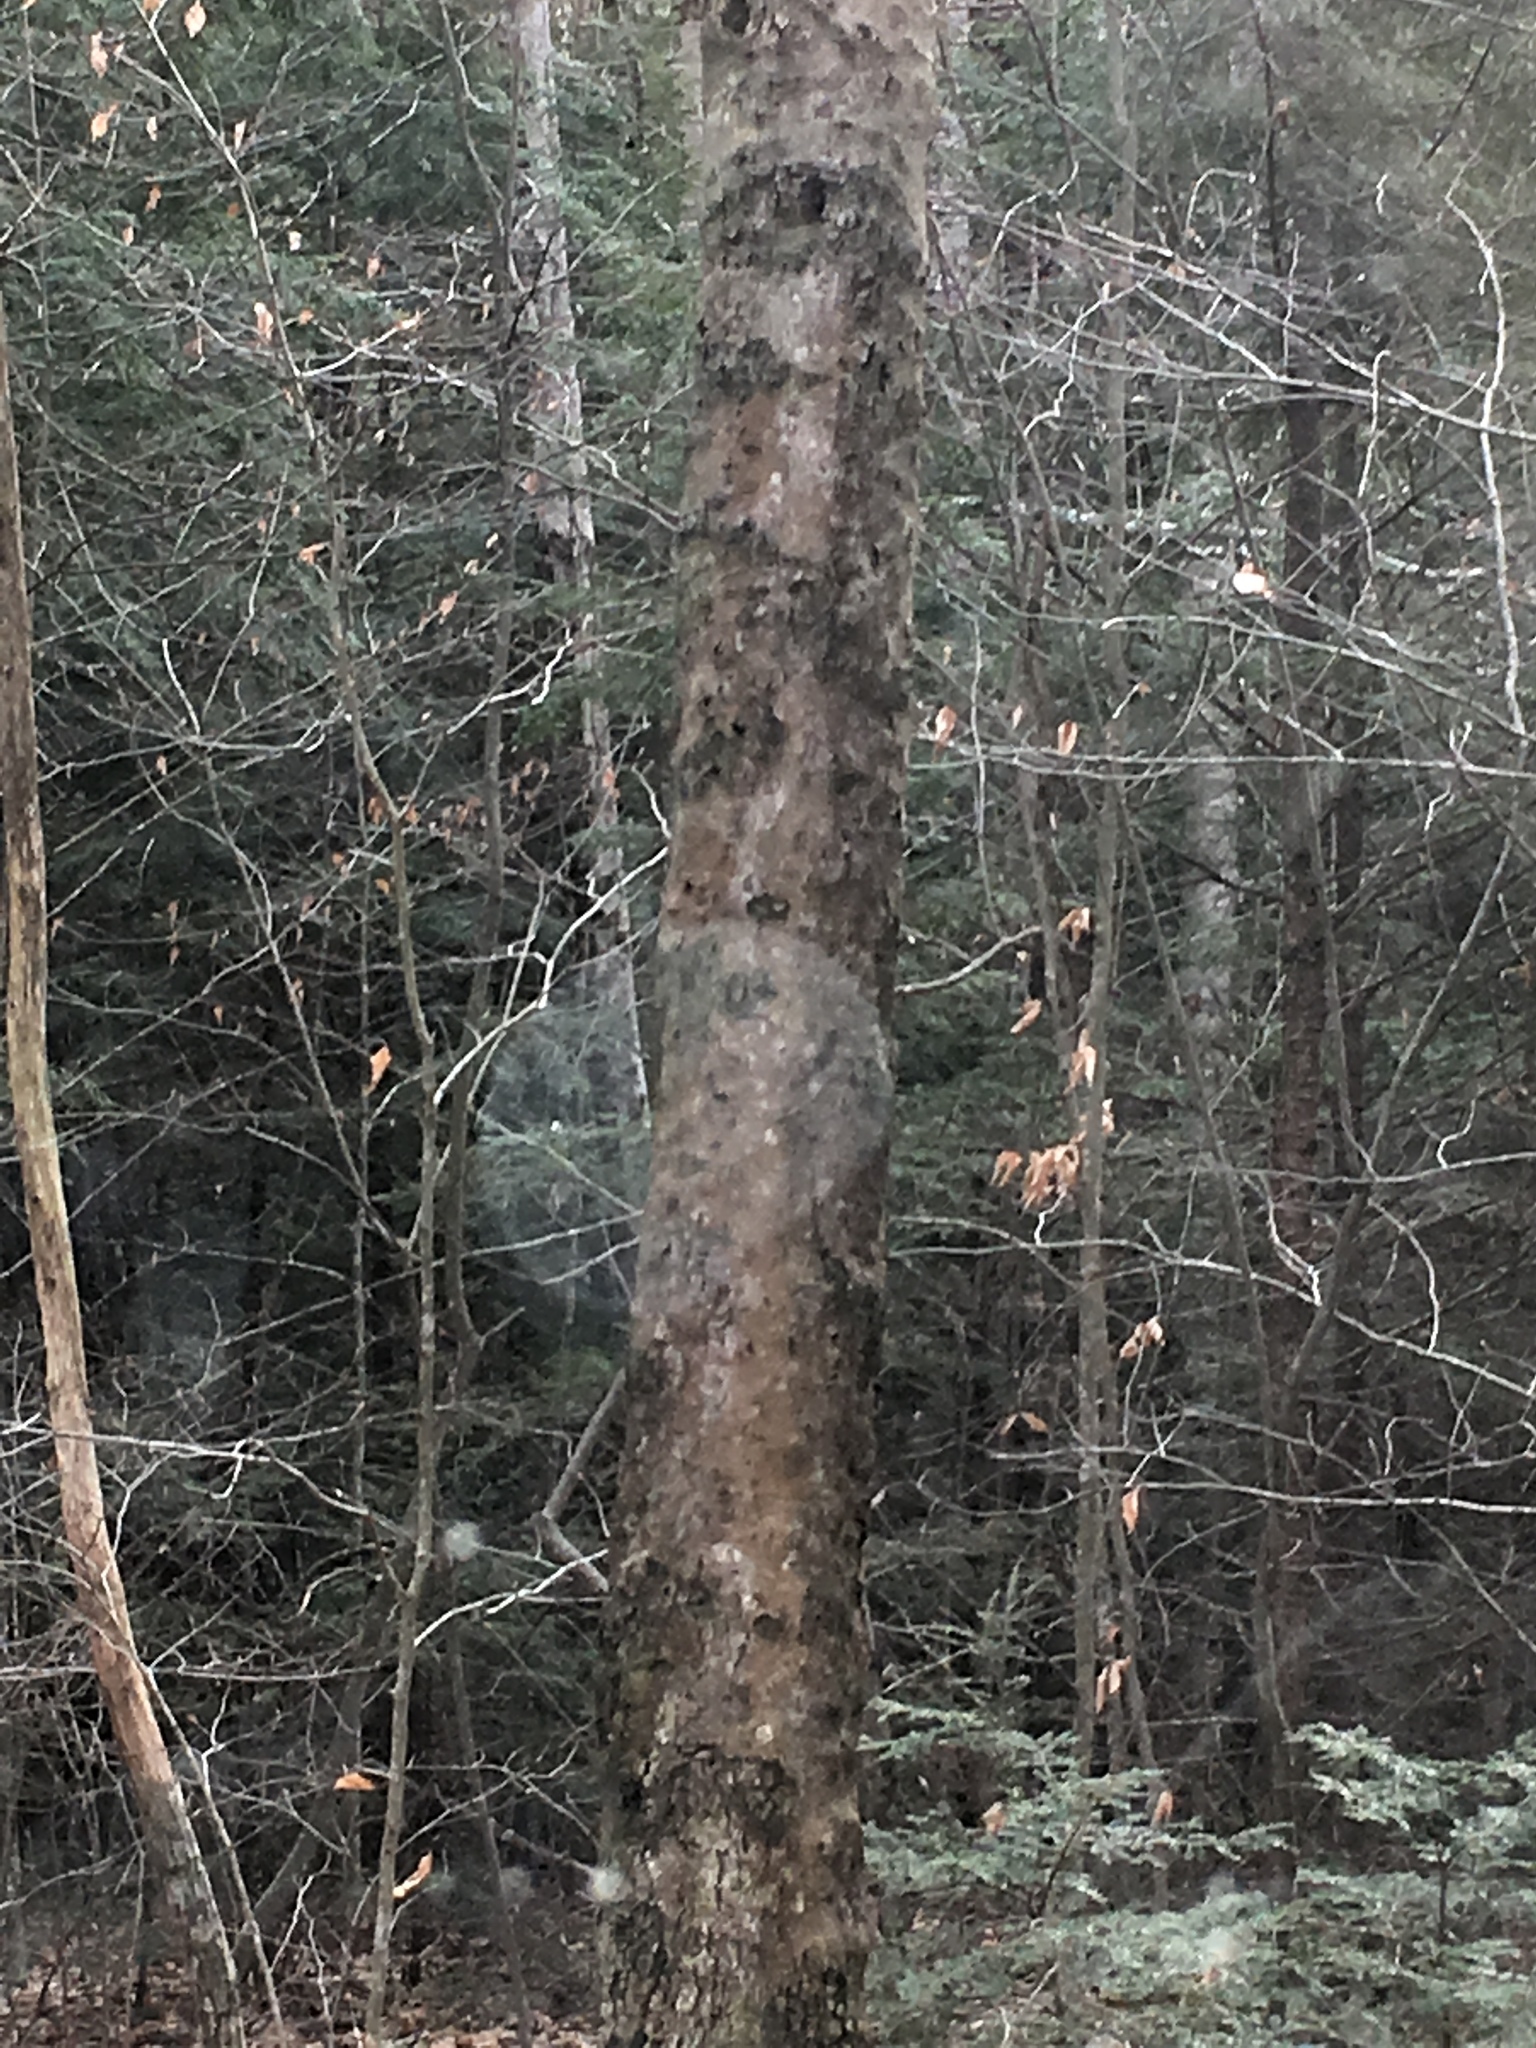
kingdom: Plantae
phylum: Tracheophyta
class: Magnoliopsida
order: Fagales
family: Fagaceae
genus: Fagus
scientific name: Fagus grandifolia
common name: American beech
